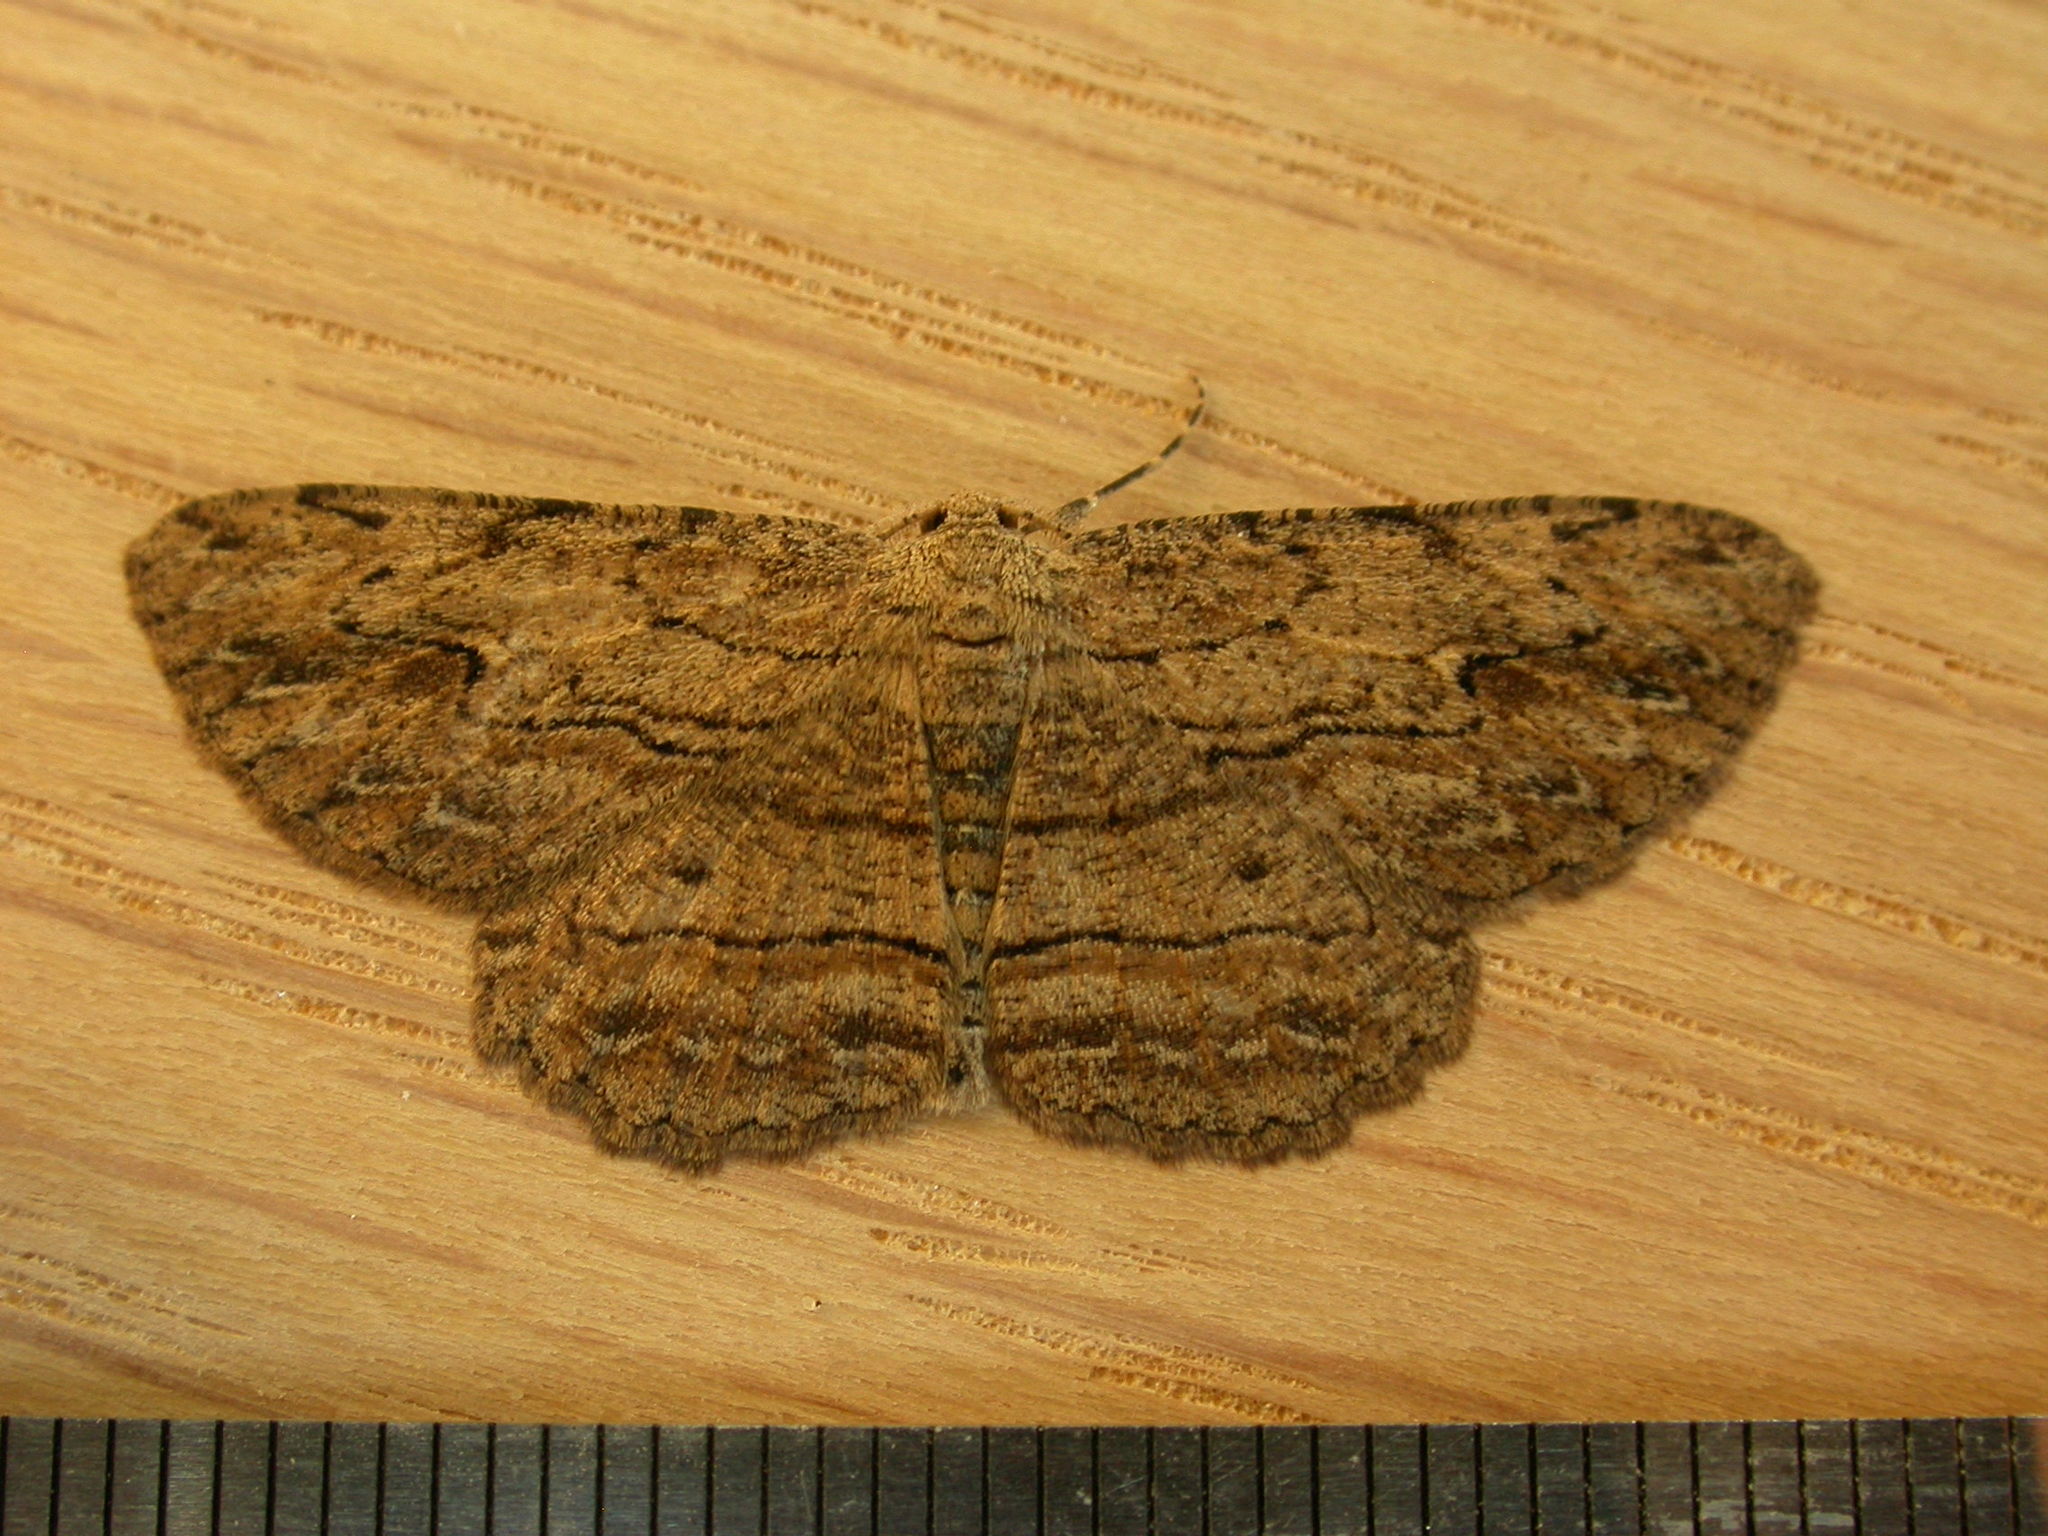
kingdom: Animalia
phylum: Arthropoda
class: Insecta
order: Lepidoptera
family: Geometridae
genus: Ectropis
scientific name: Ectropis excursaria
